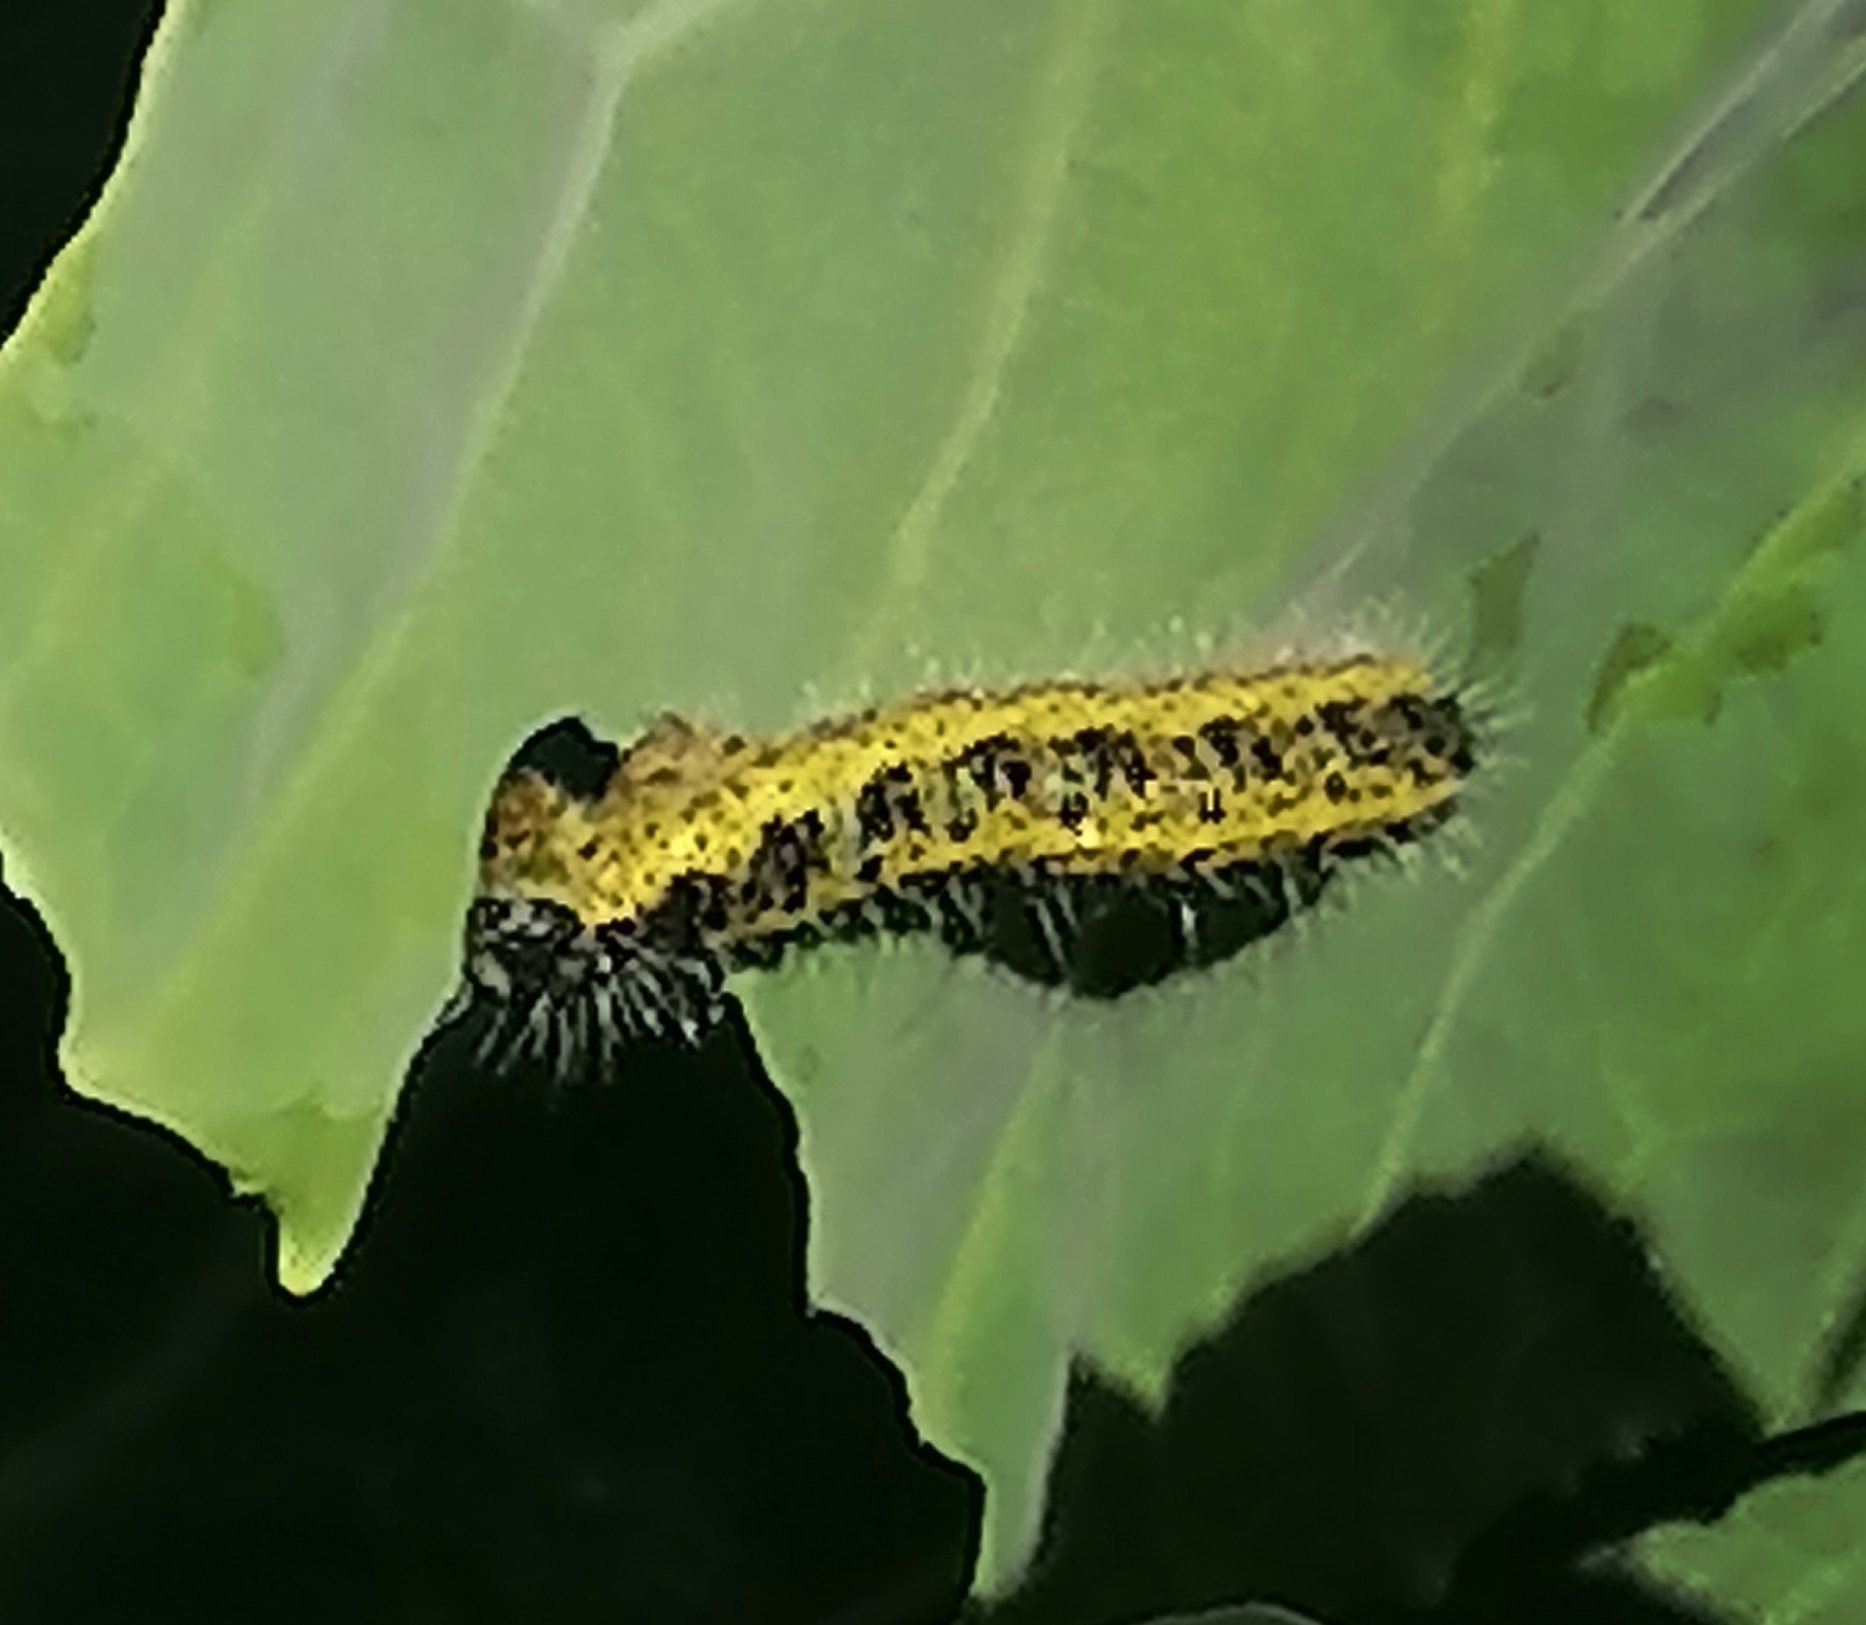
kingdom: Animalia
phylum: Arthropoda
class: Insecta
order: Lepidoptera
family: Pieridae
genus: Pieris
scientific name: Pieris brassicae
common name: Large white
